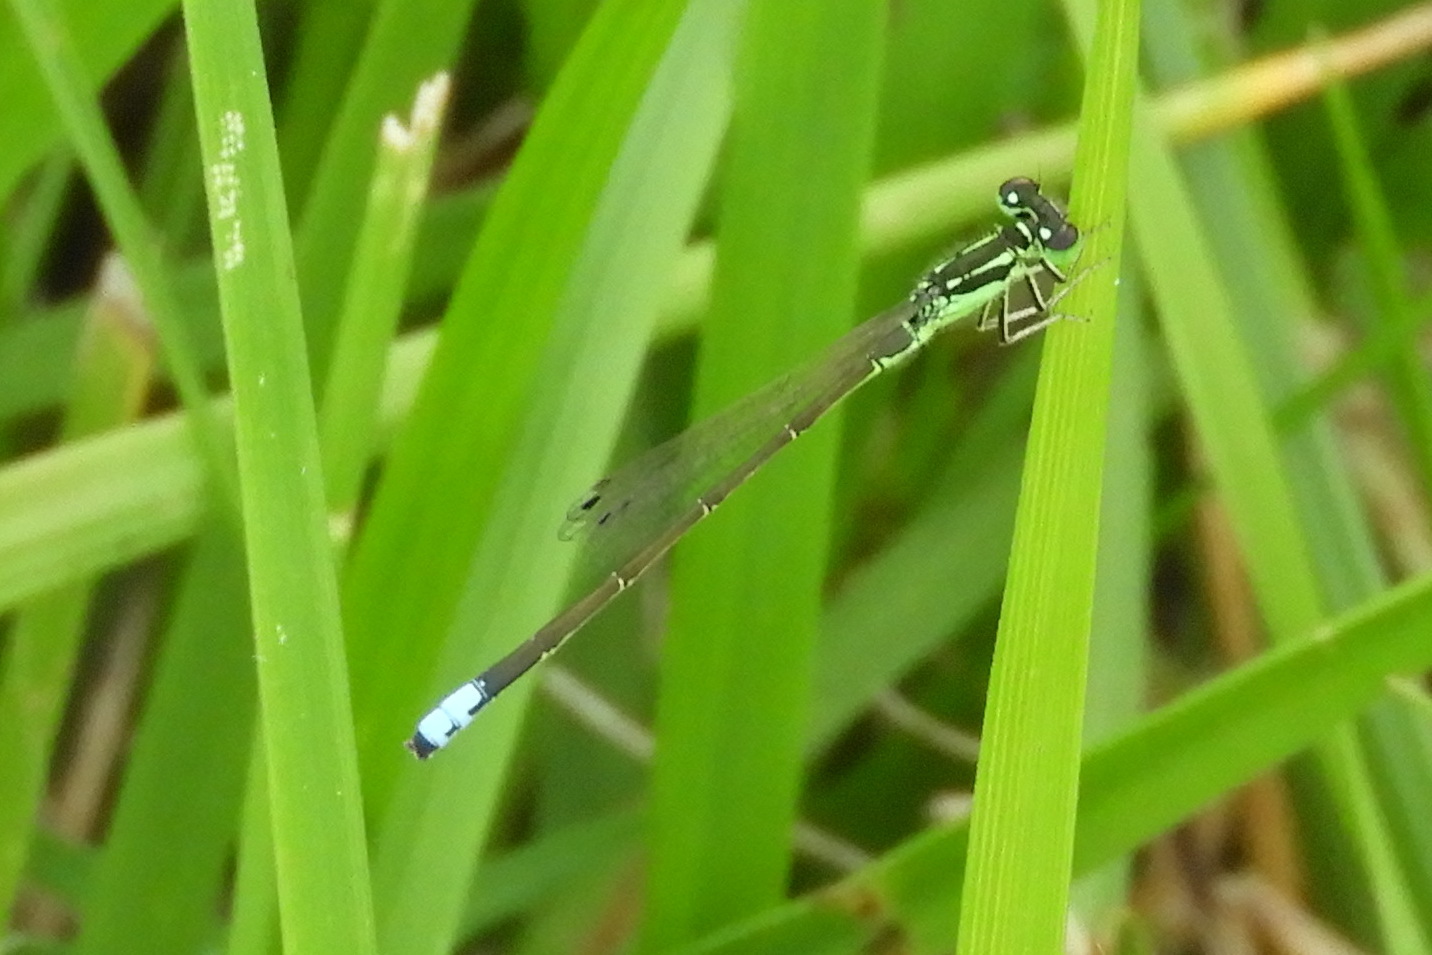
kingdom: Animalia
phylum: Arthropoda
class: Insecta
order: Odonata
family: Coenagrionidae
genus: Ischnura
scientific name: Ischnura verticalis
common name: Eastern forktail
